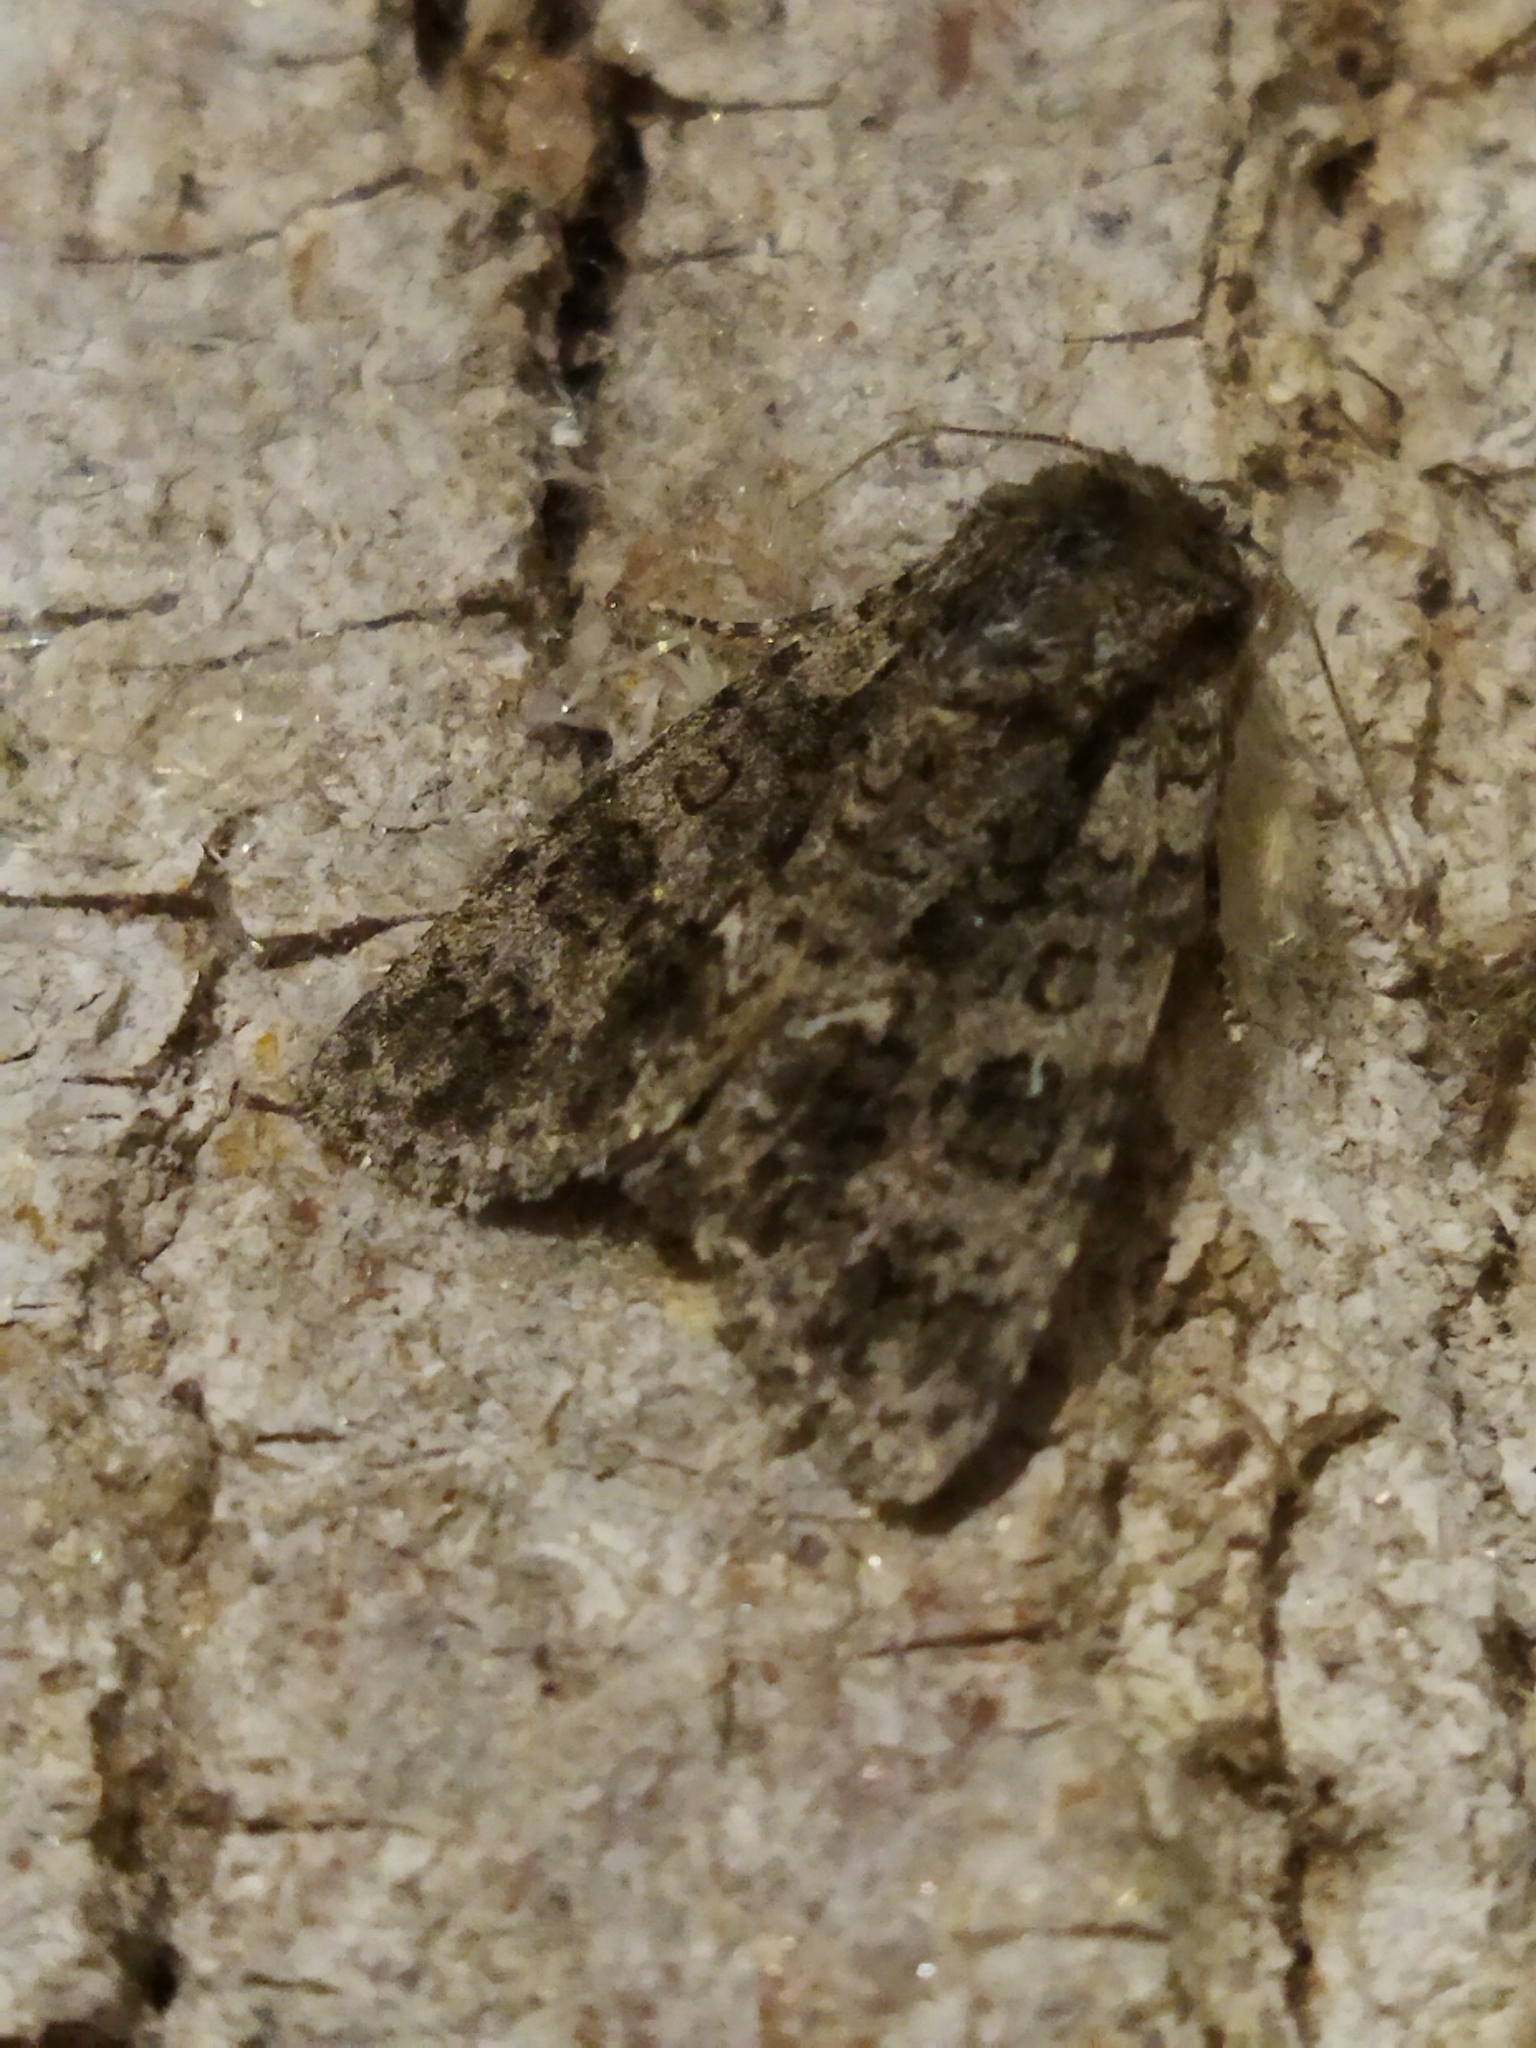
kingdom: Animalia
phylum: Arthropoda
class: Insecta
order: Lepidoptera
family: Noctuidae
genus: Acronicta
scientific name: Acronicta rumicis
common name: Knot grass
